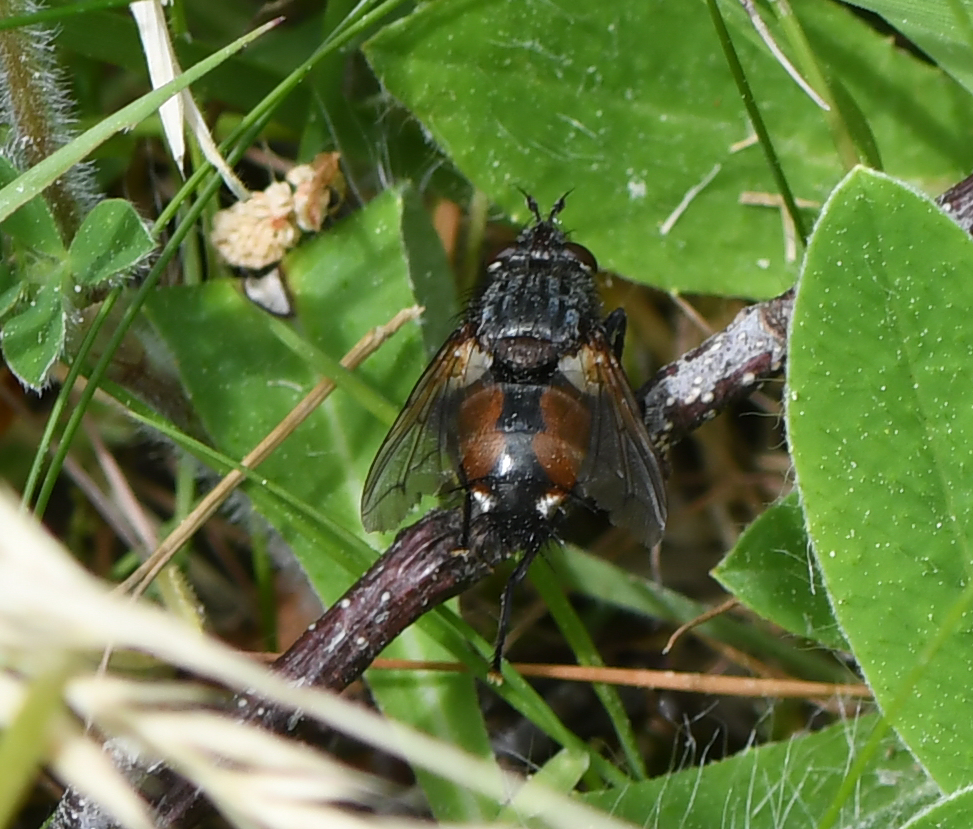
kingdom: Animalia
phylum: Arthropoda
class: Insecta
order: Diptera
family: Tachinidae
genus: Peleteria
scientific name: Peleteria rubescens
